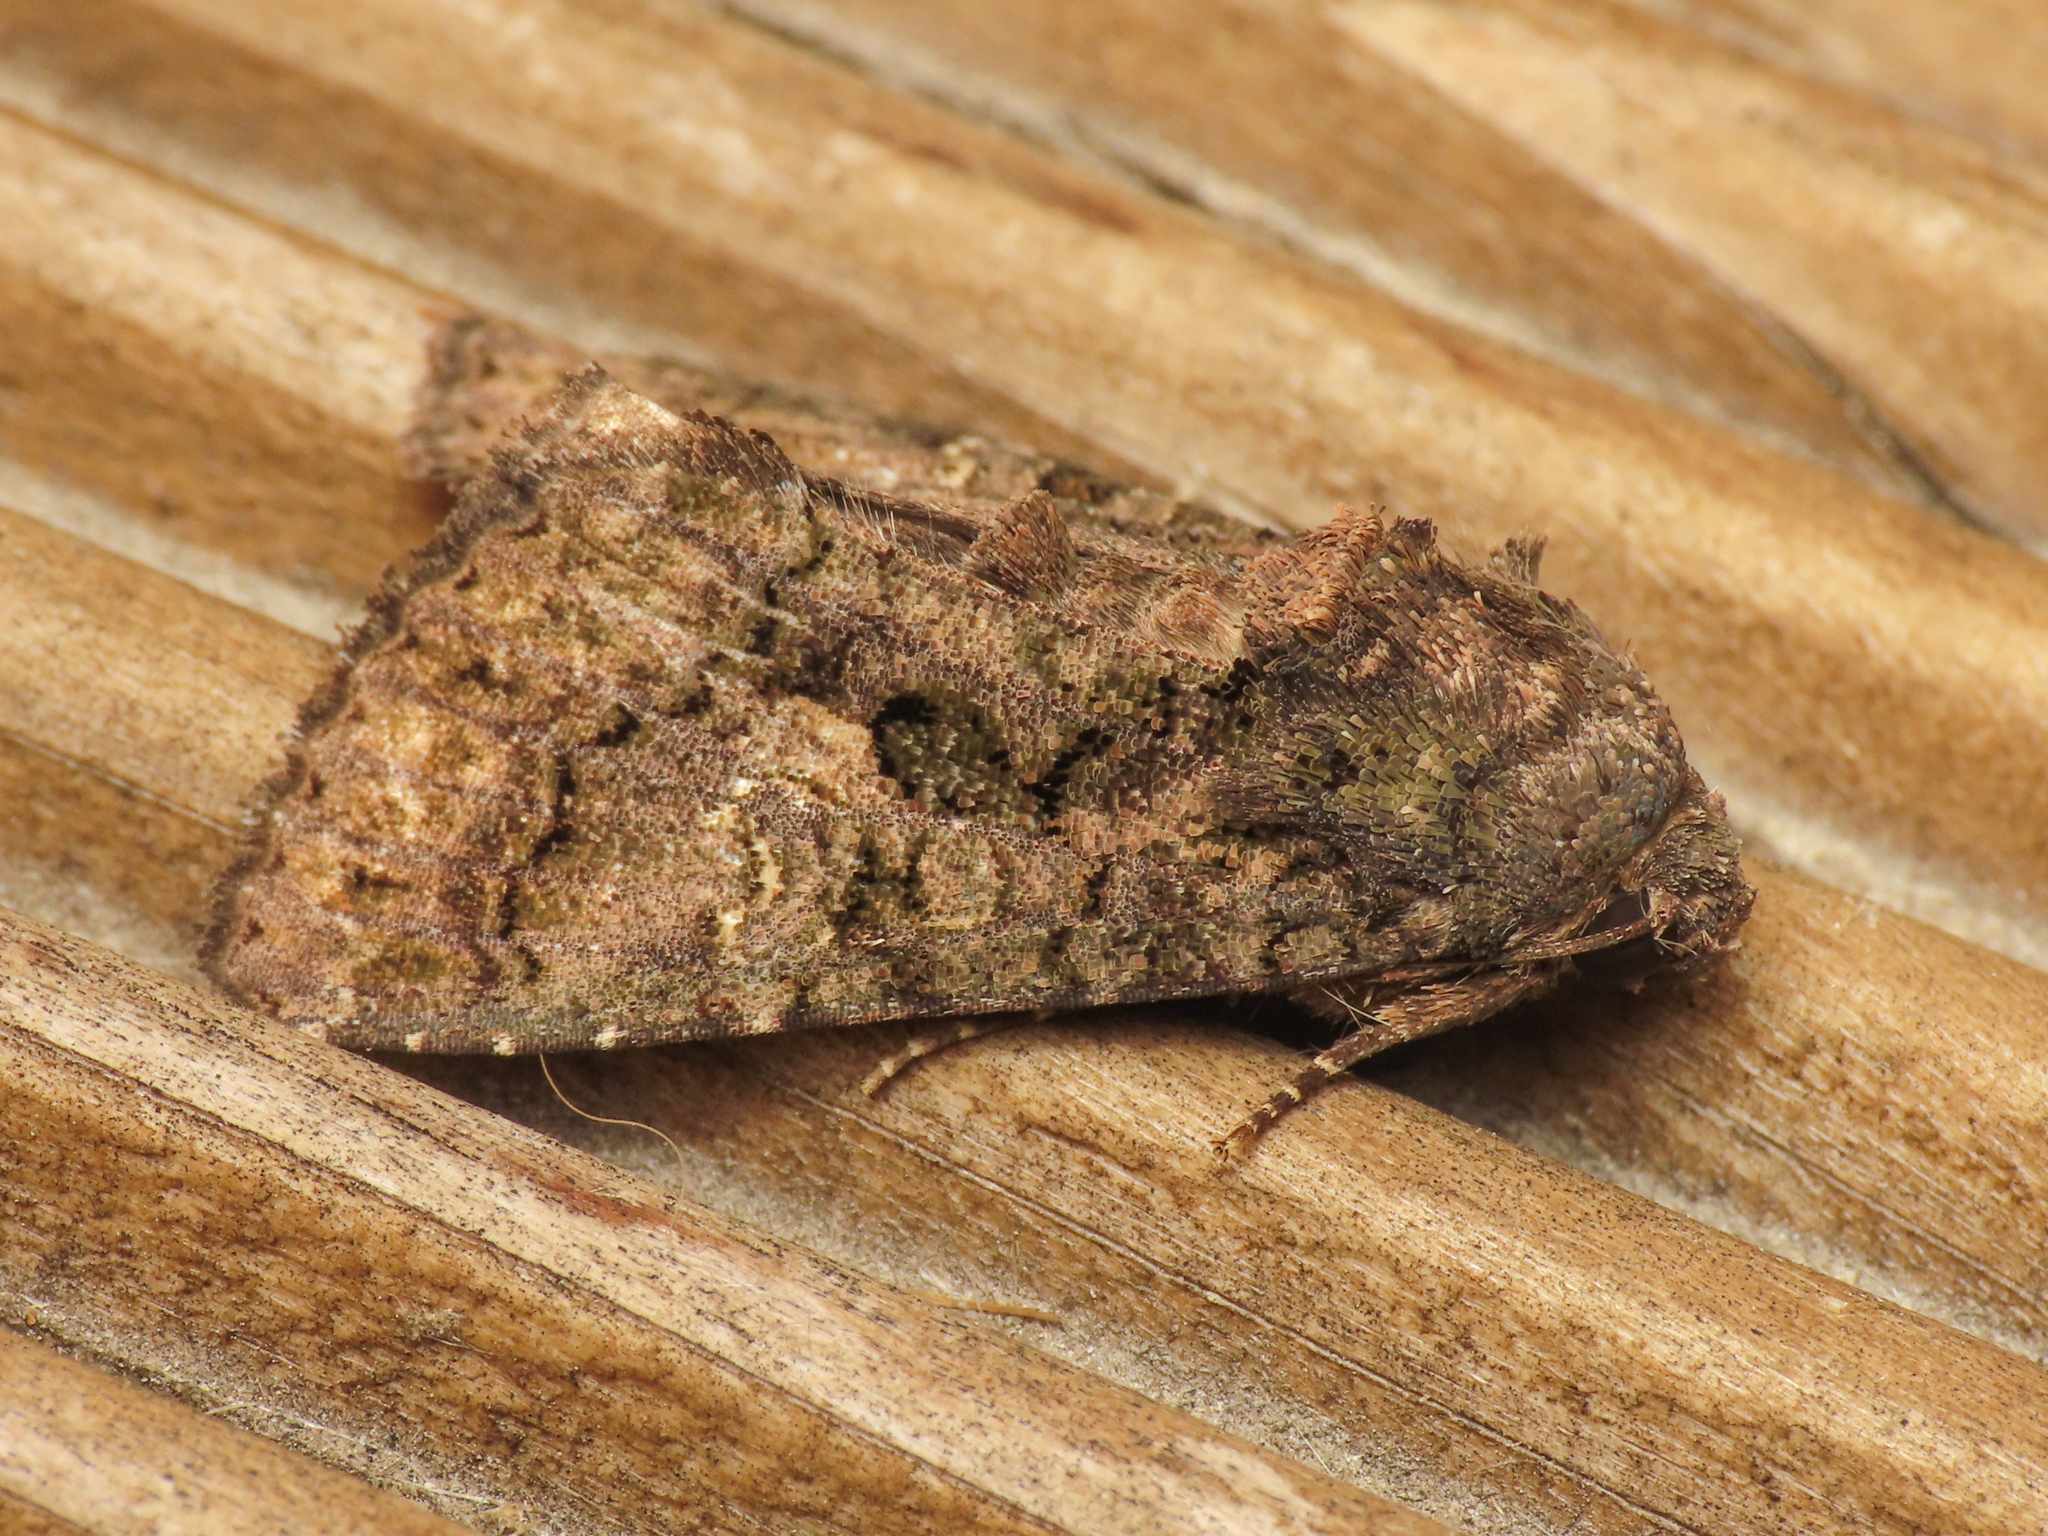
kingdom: Animalia
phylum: Arthropoda
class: Insecta
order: Lepidoptera
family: Noctuidae
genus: Aedia
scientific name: Aedia leucomelas
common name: Sorcerer
